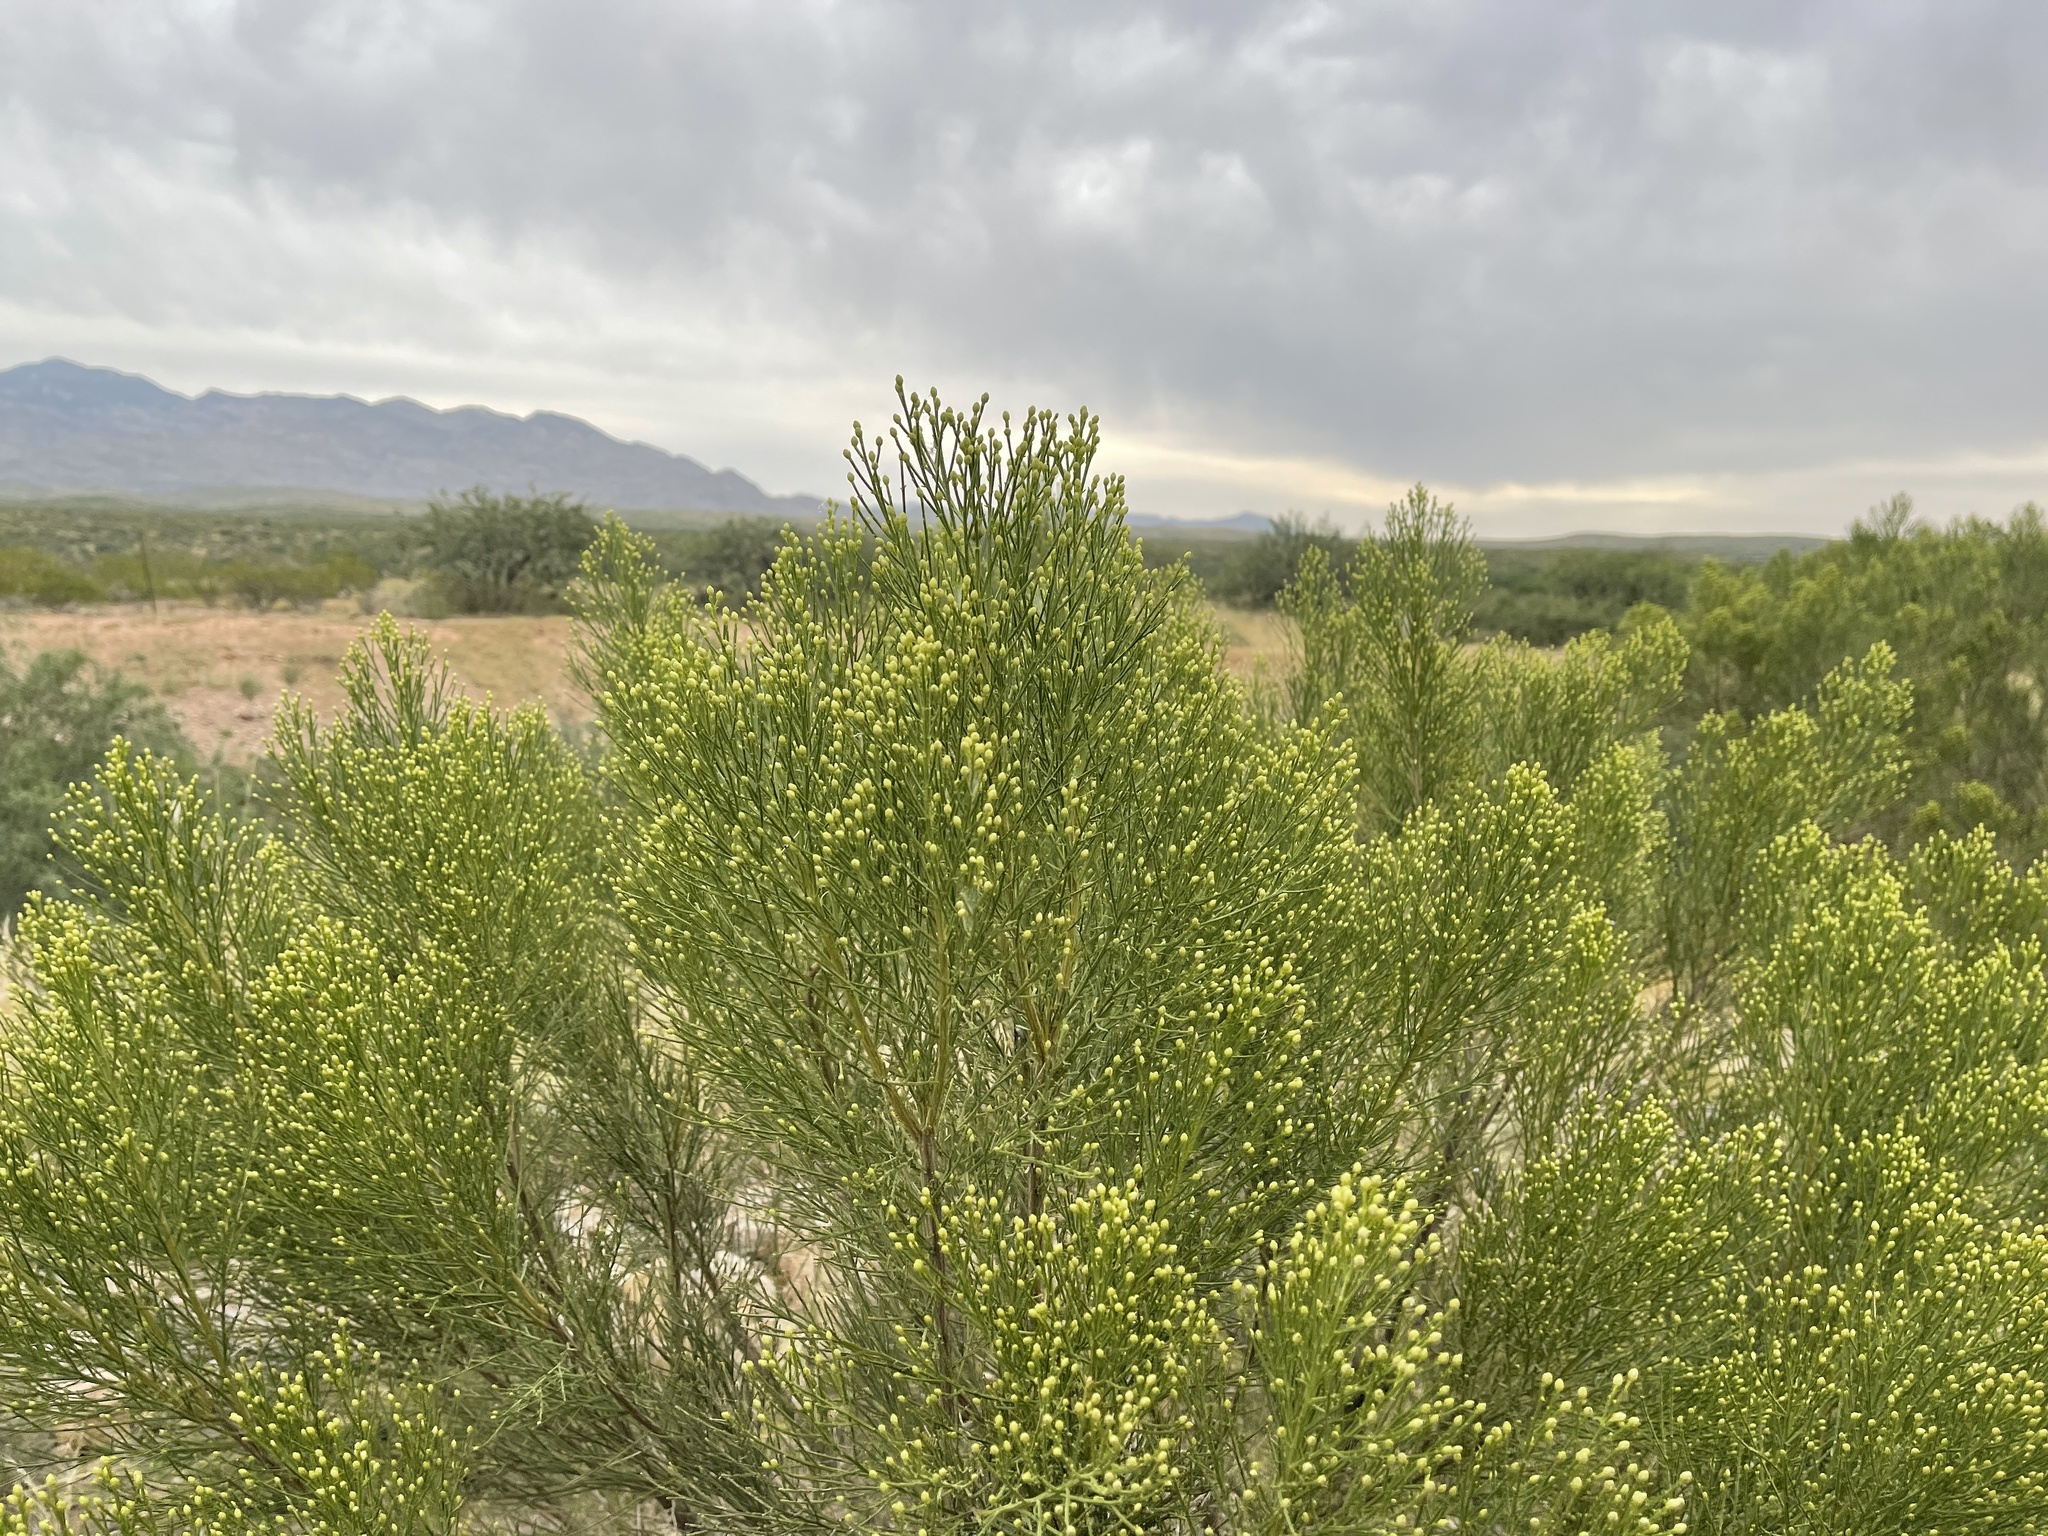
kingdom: Plantae
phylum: Tracheophyta
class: Magnoliopsida
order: Asterales
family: Asteraceae
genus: Baccharis
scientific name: Baccharis sarothroides
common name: Desert-broom
